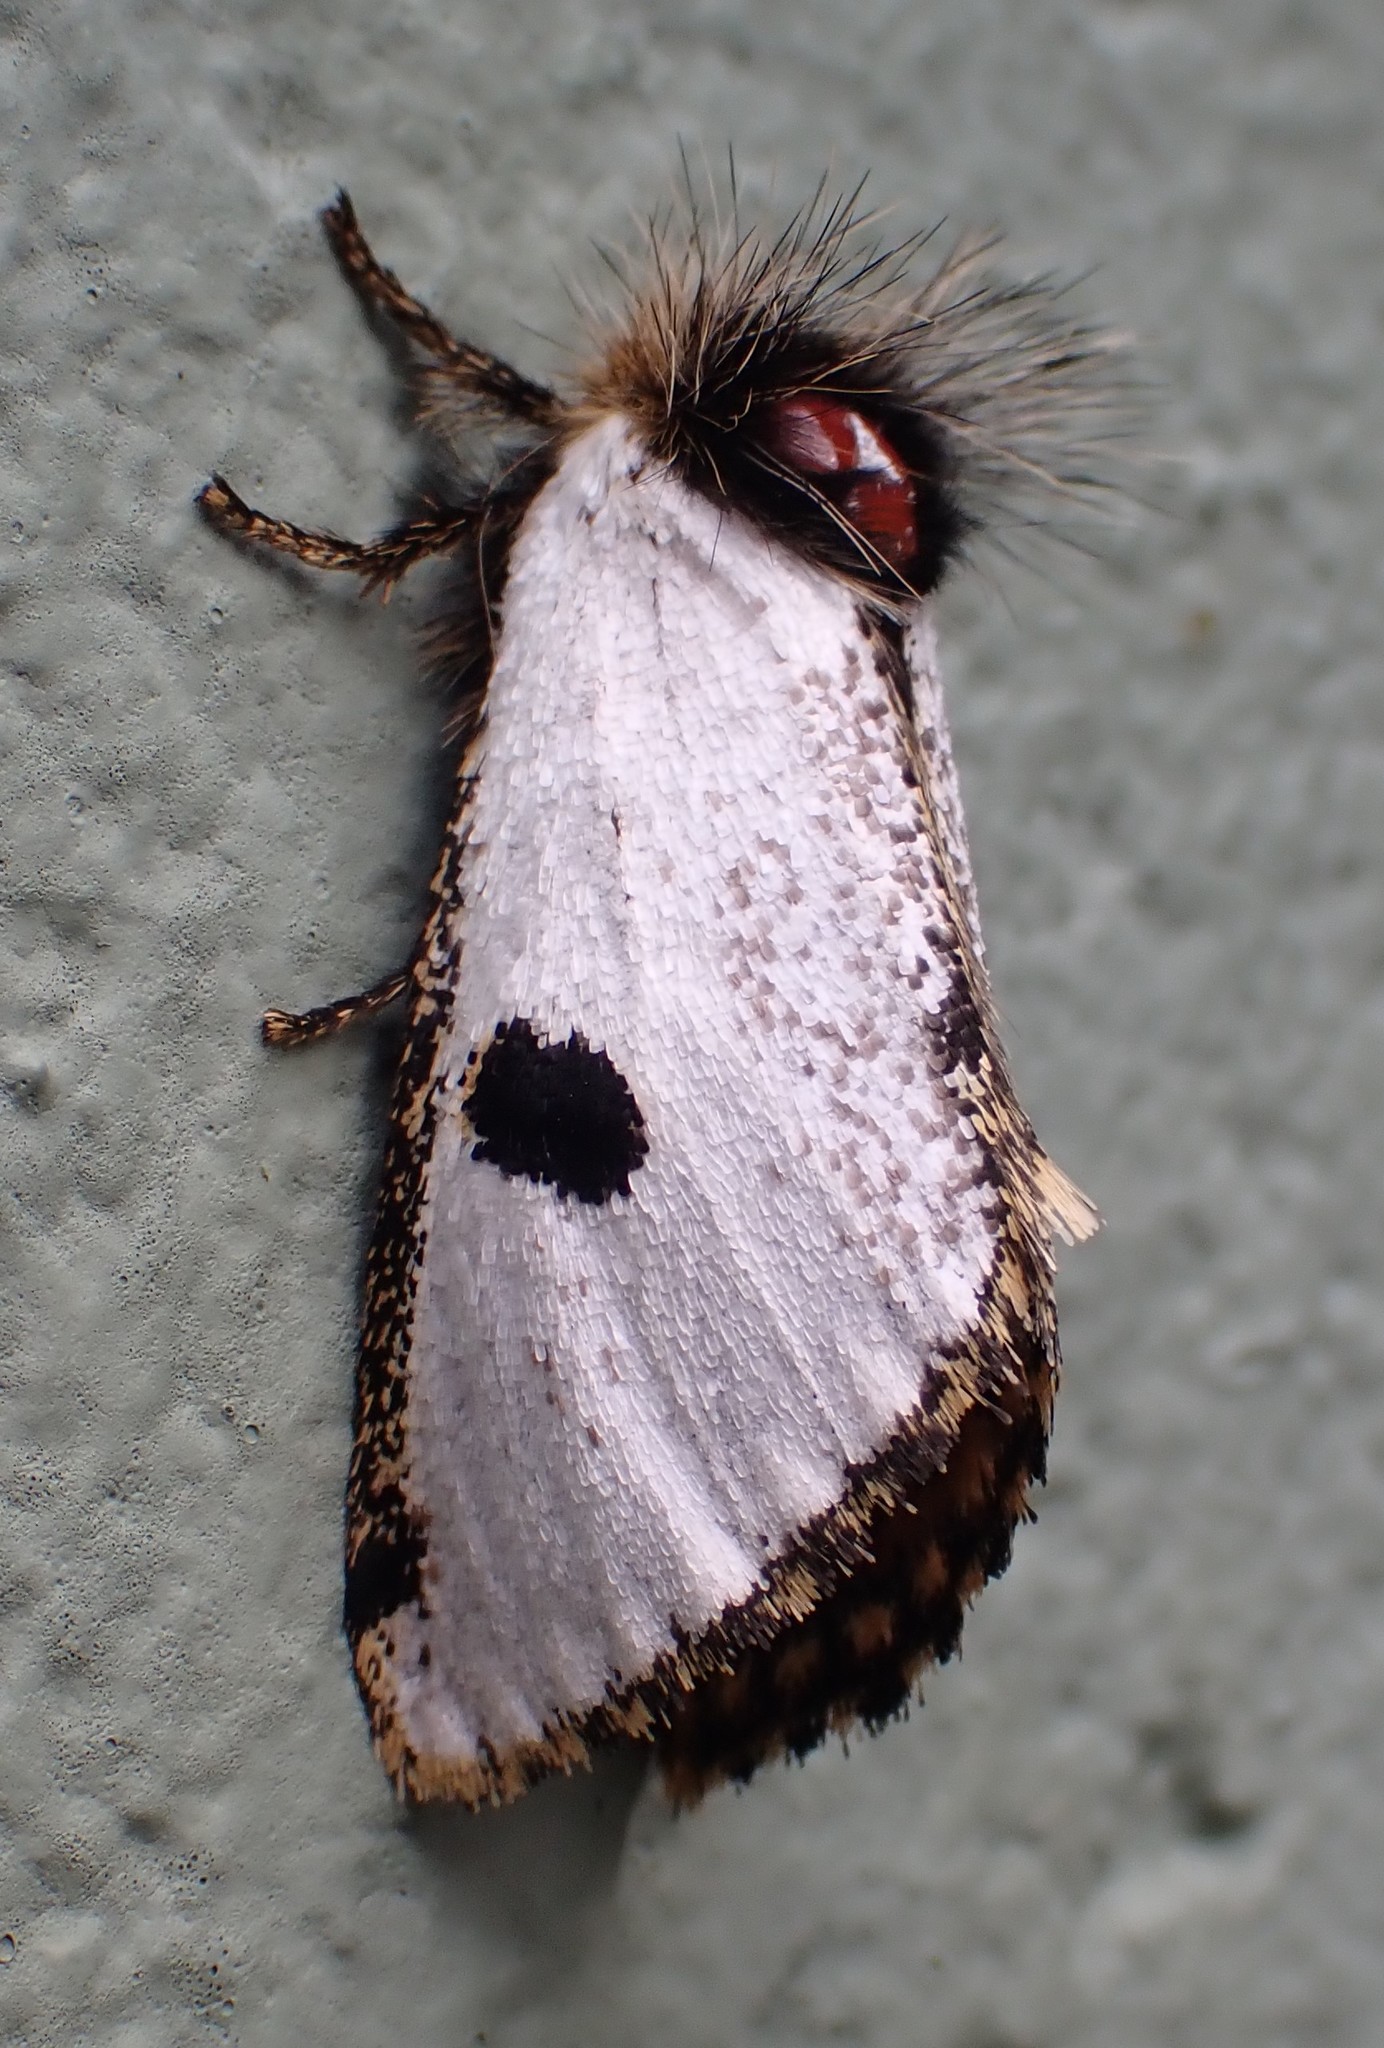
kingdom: Animalia
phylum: Arthropoda
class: Insecta
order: Lepidoptera
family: Notodontidae
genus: Epicoma
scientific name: Epicoma melanospila
